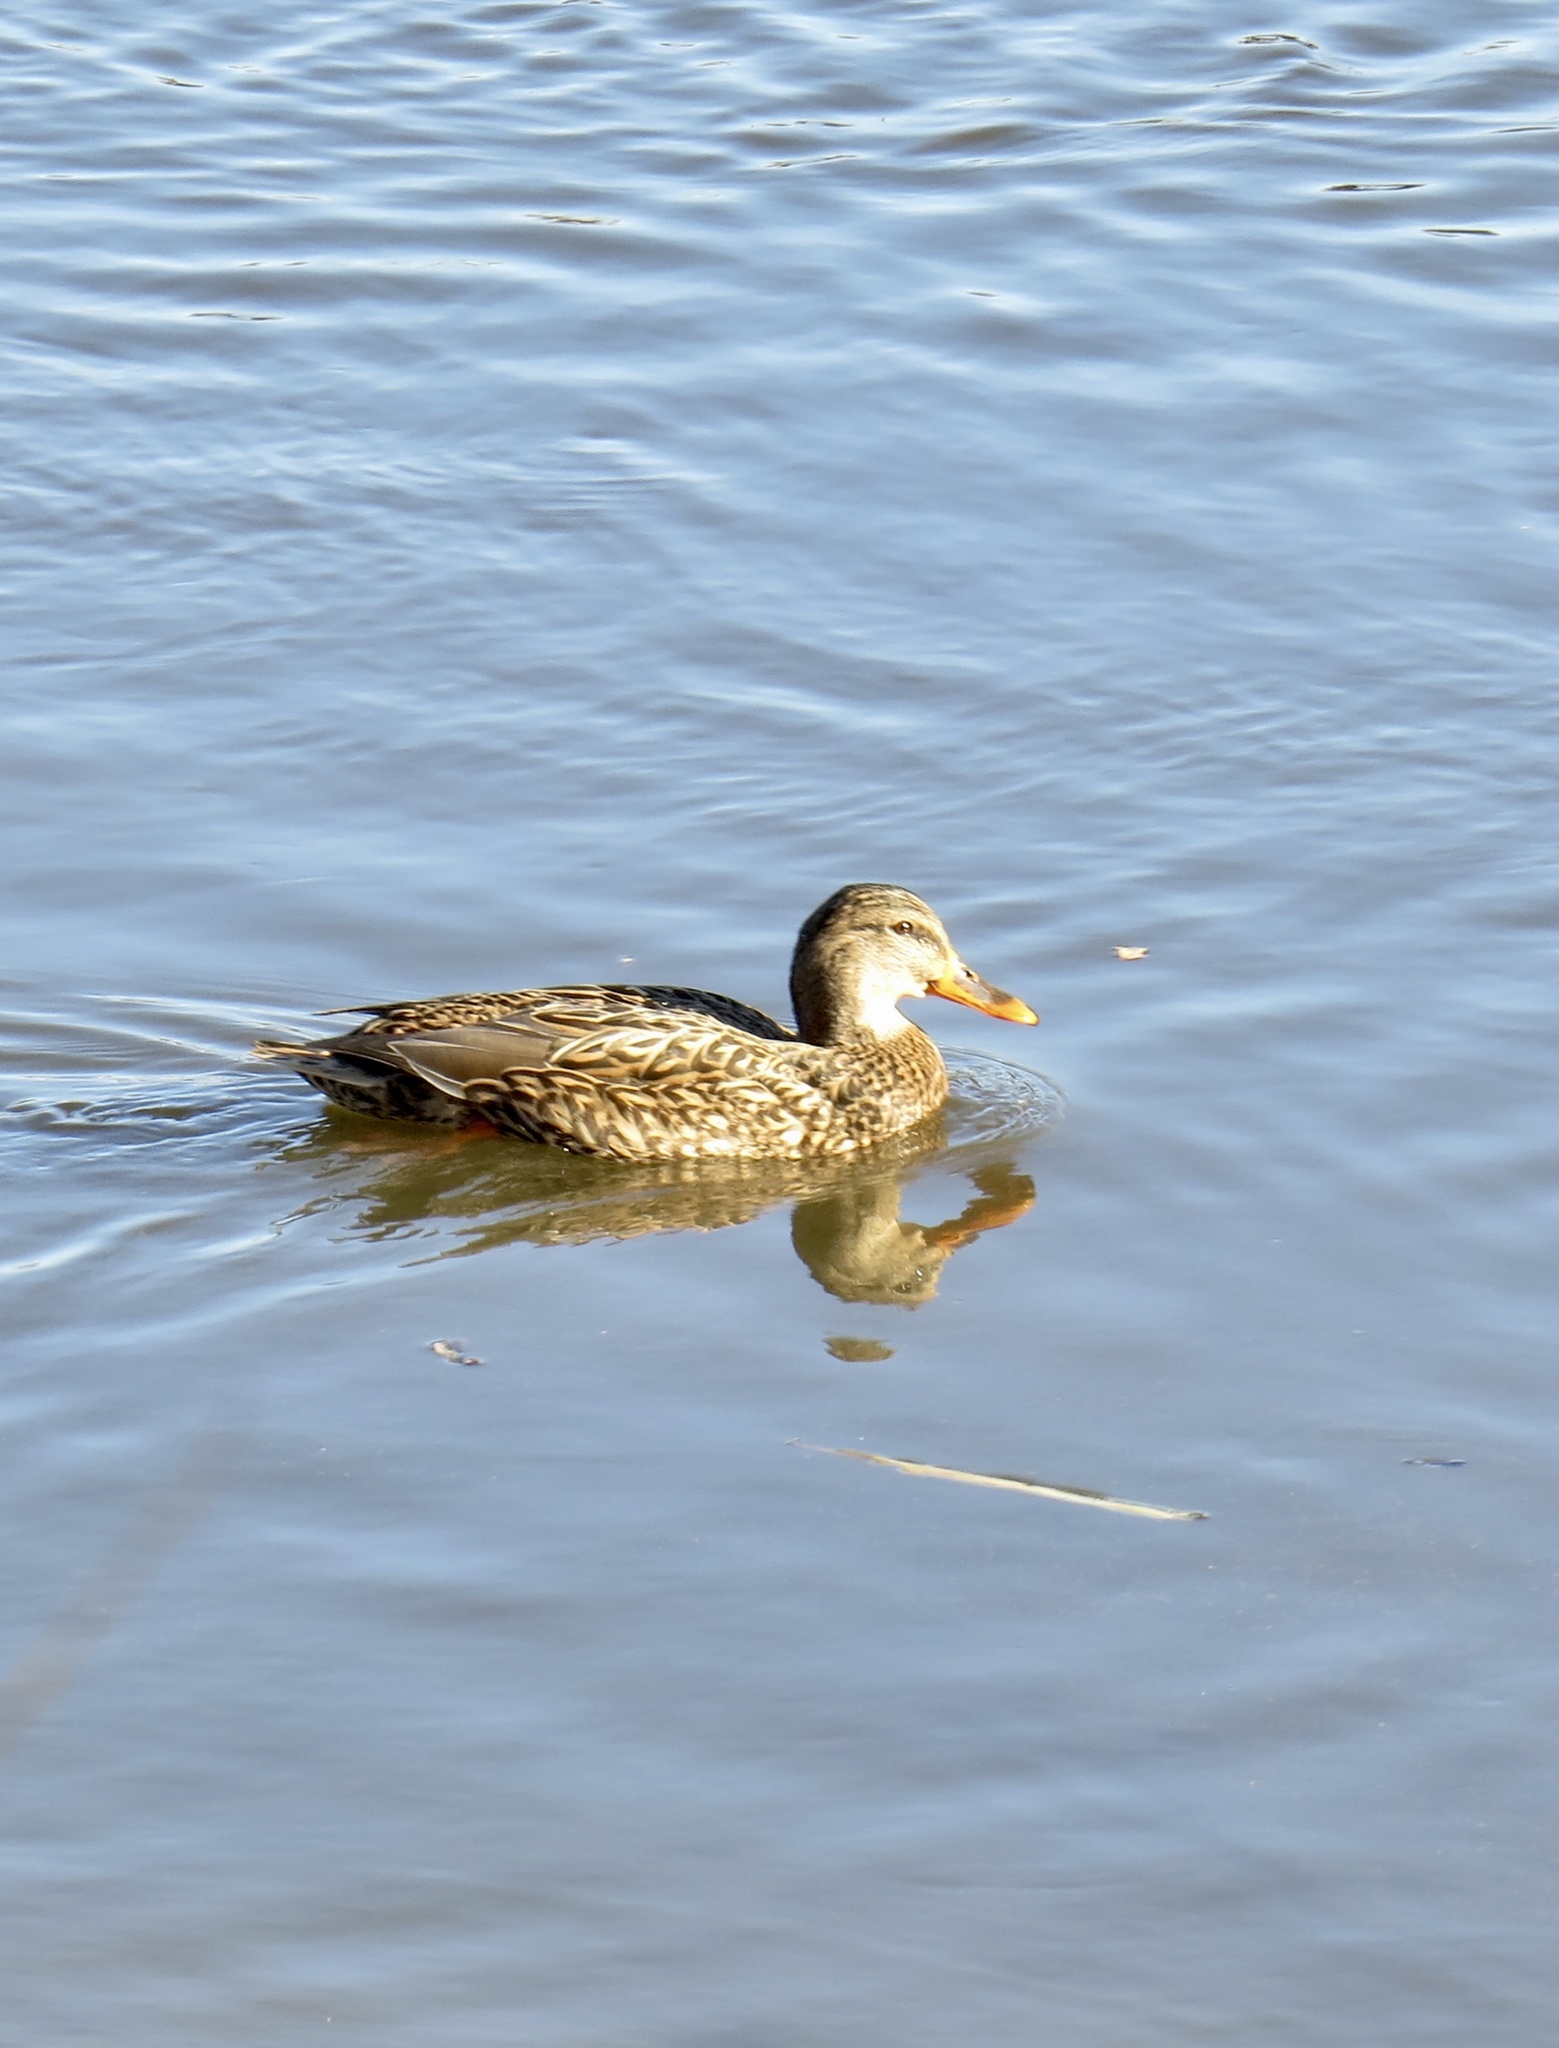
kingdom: Animalia
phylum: Chordata
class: Aves
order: Anseriformes
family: Anatidae
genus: Anas
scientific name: Anas platyrhynchos
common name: Mallard
